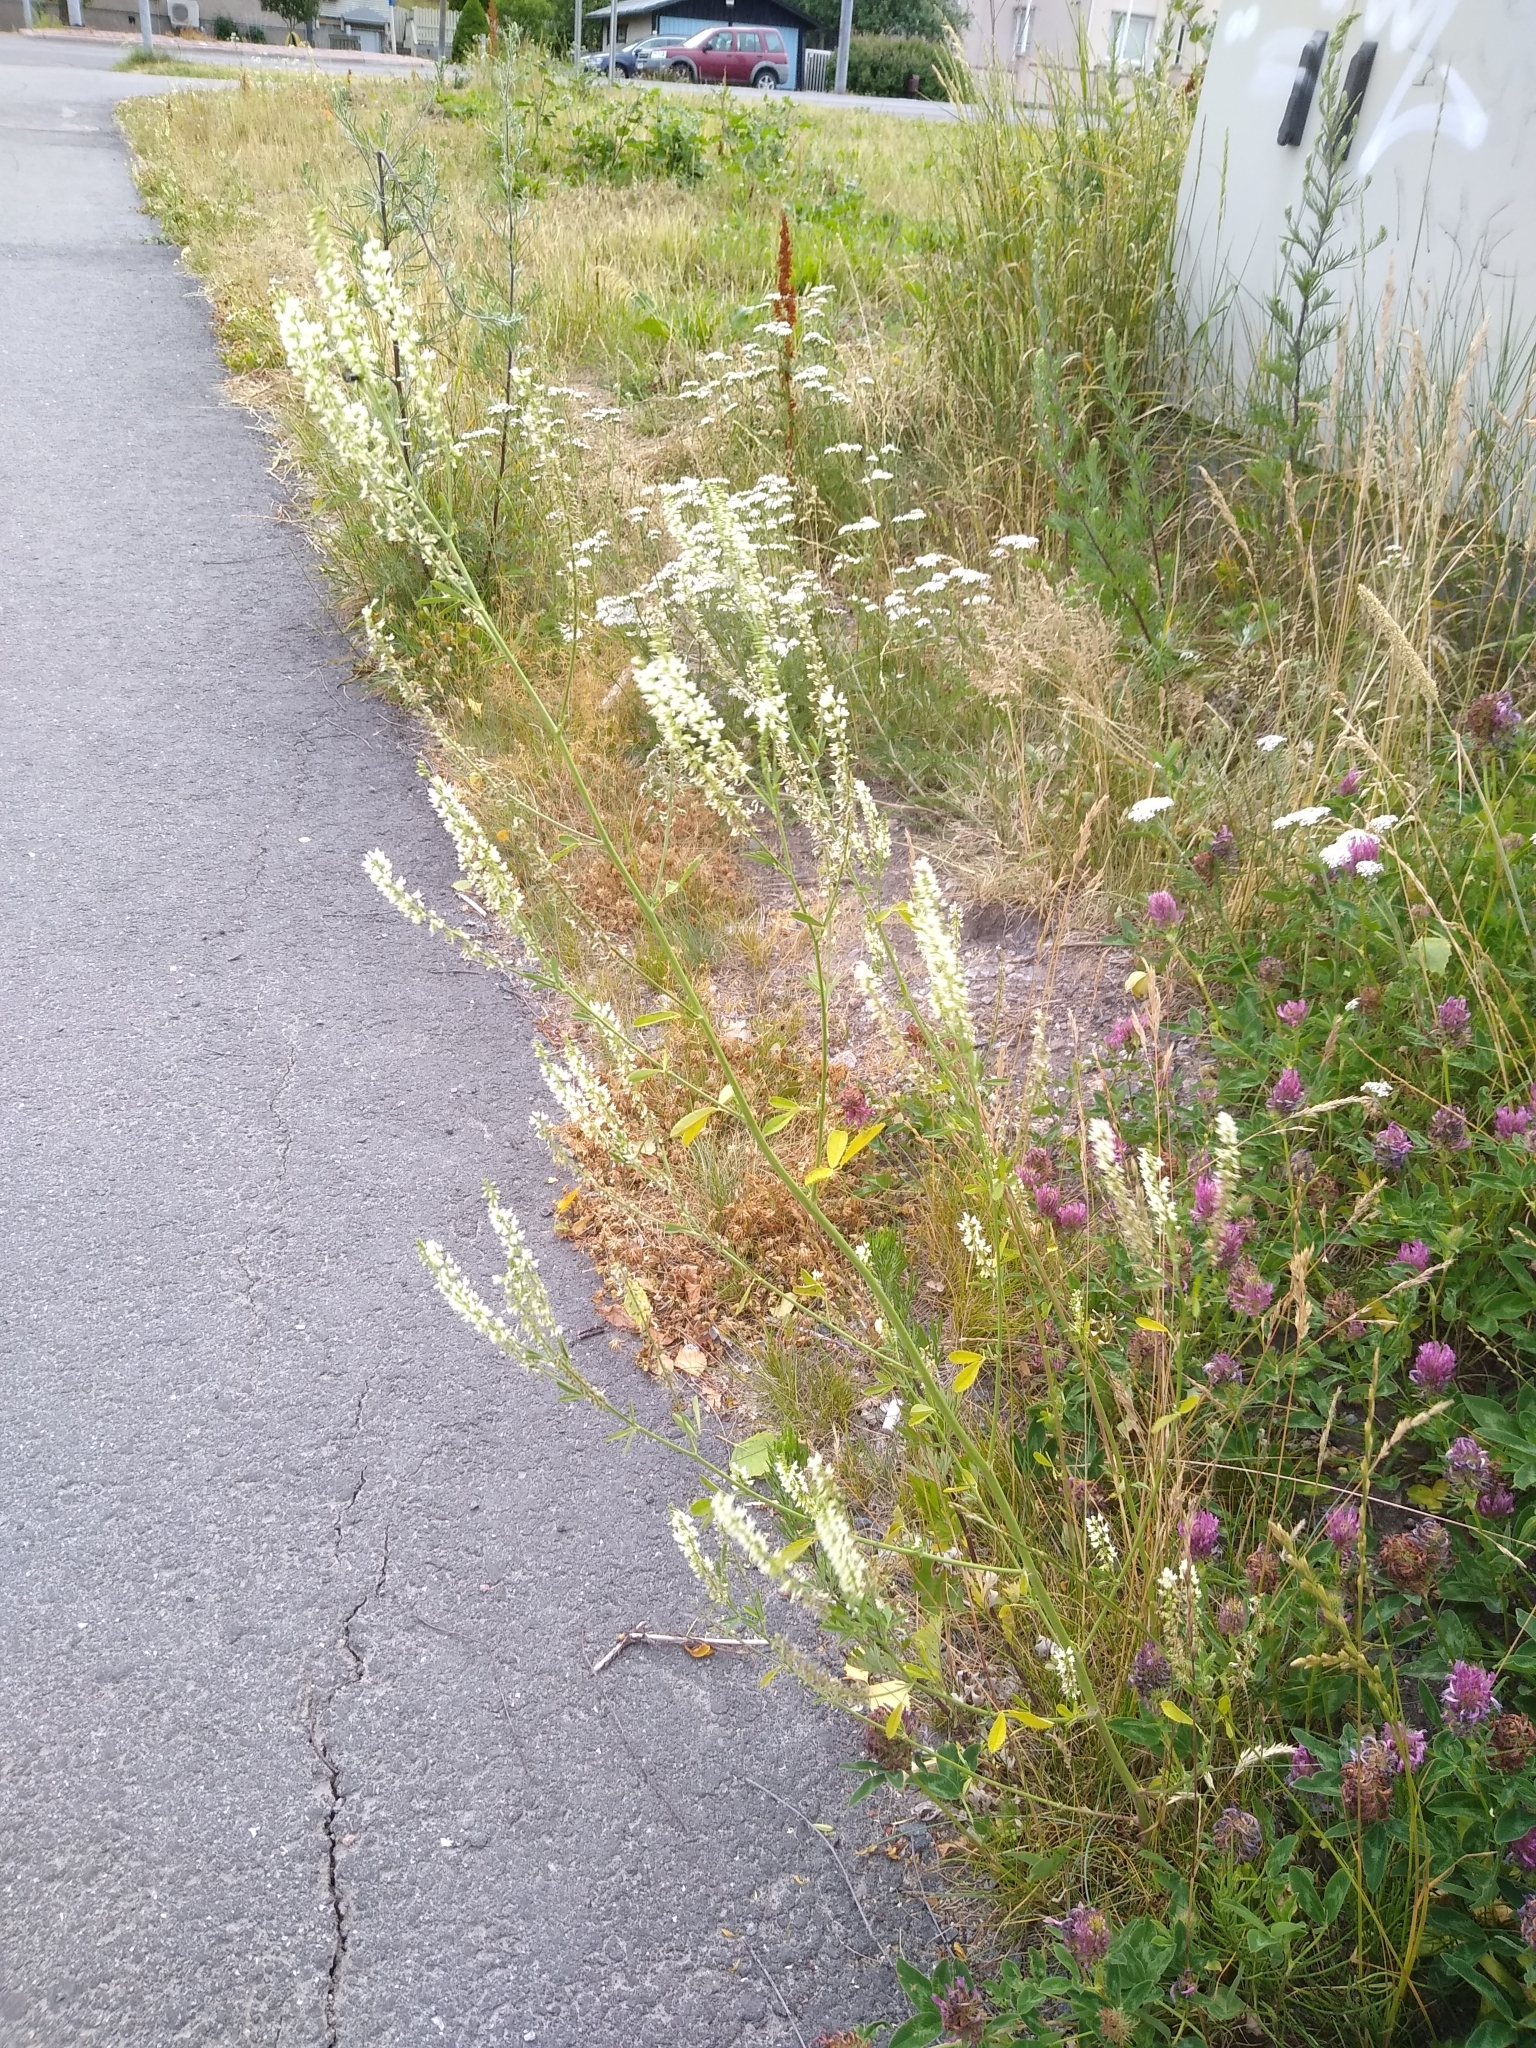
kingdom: Plantae
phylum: Tracheophyta
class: Magnoliopsida
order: Fabales
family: Fabaceae
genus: Melilotus
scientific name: Melilotus albus
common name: White melilot
